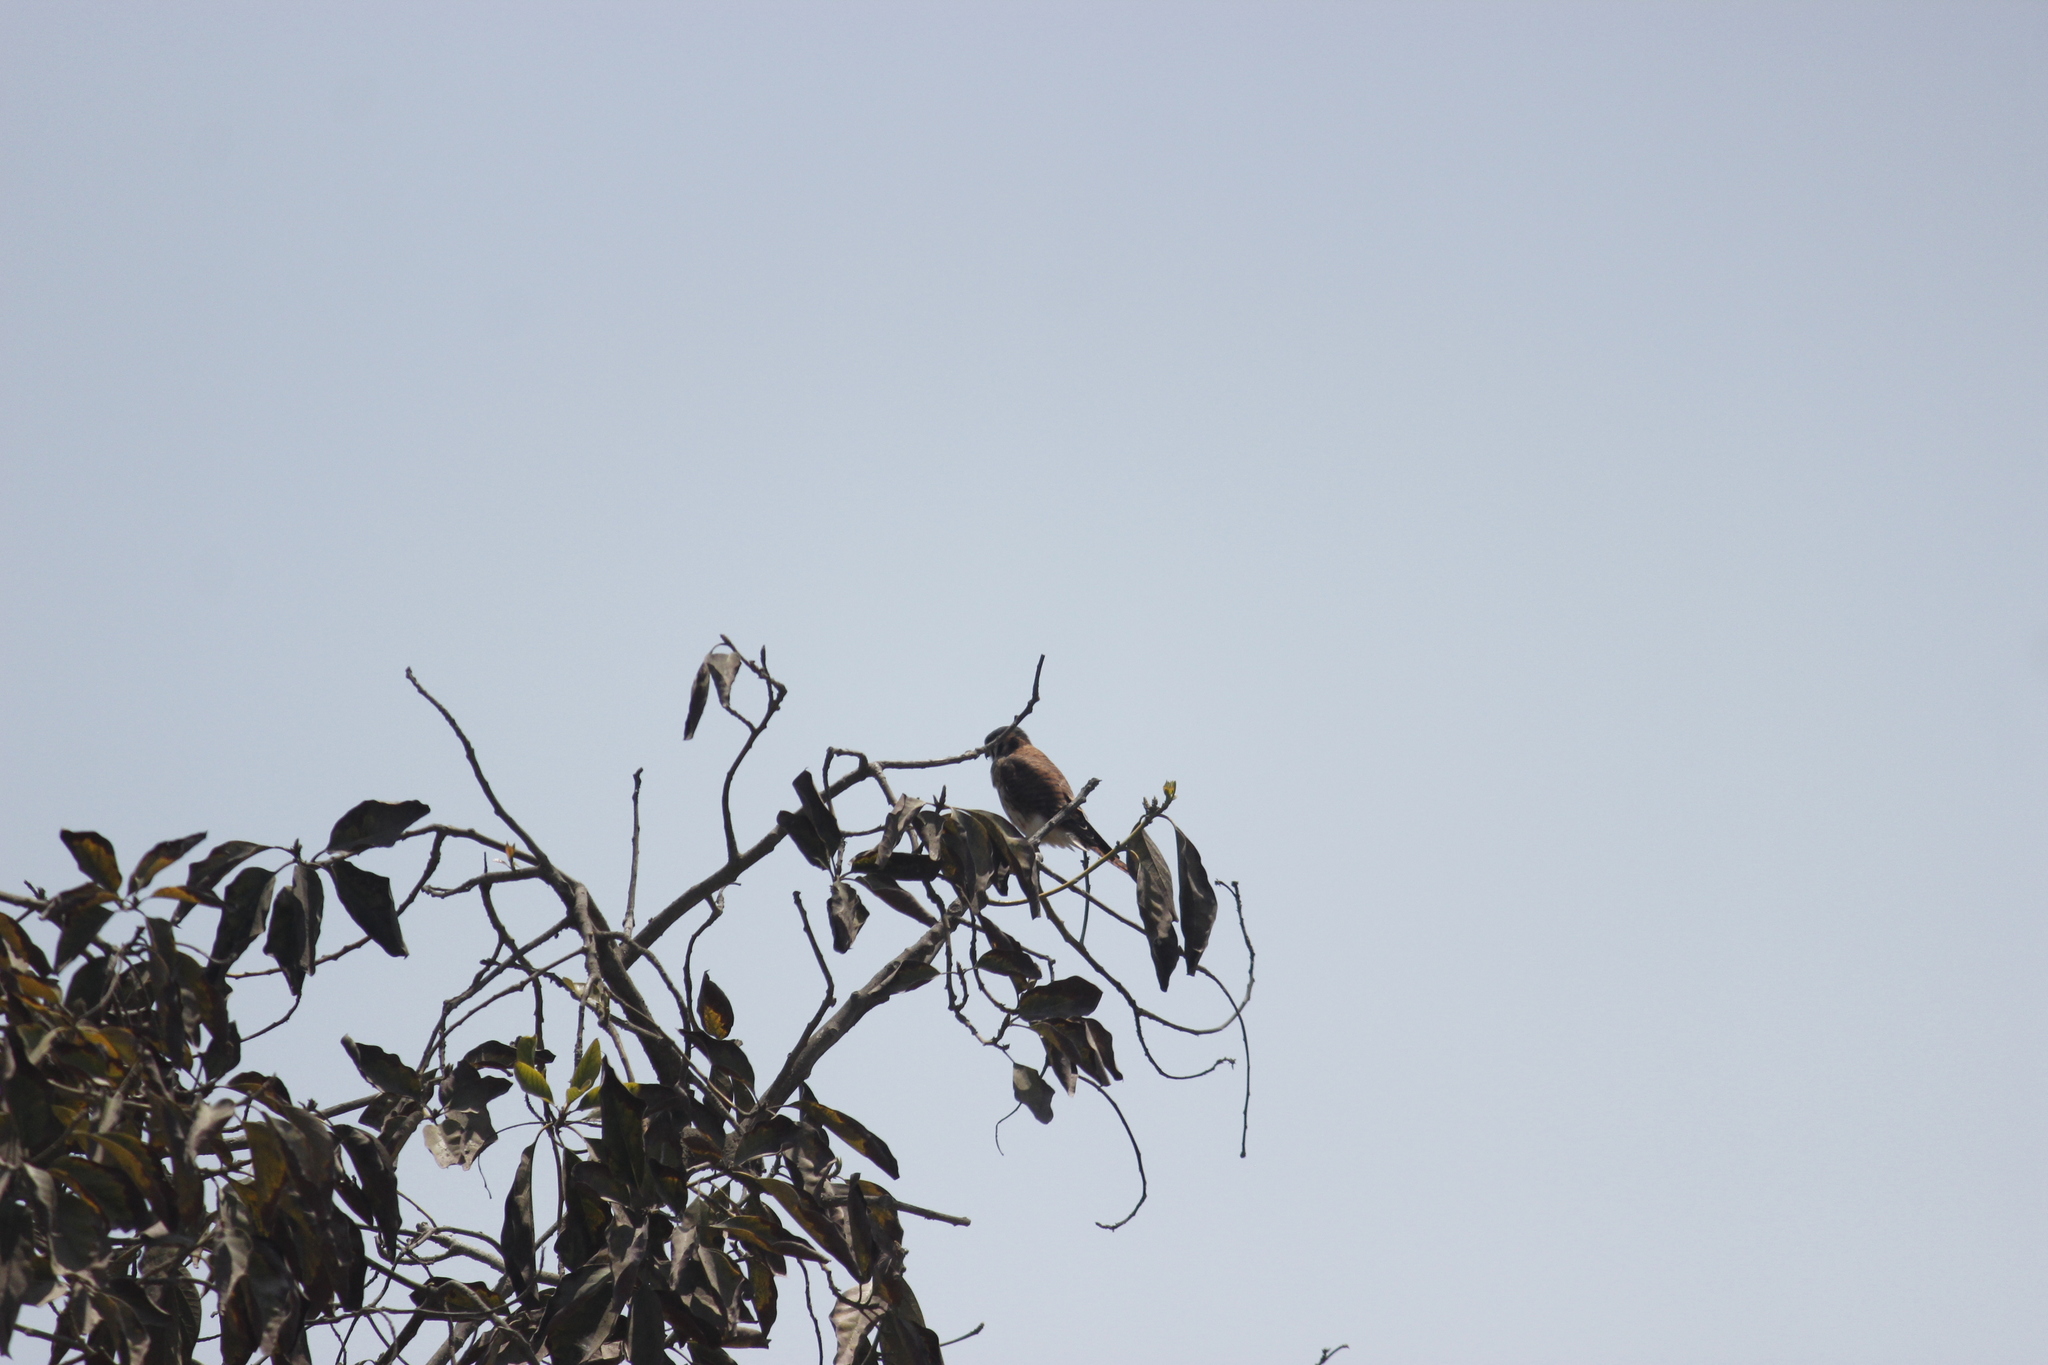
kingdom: Animalia
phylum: Chordata
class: Aves
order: Falconiformes
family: Falconidae
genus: Falco
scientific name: Falco sparverius
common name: American kestrel
